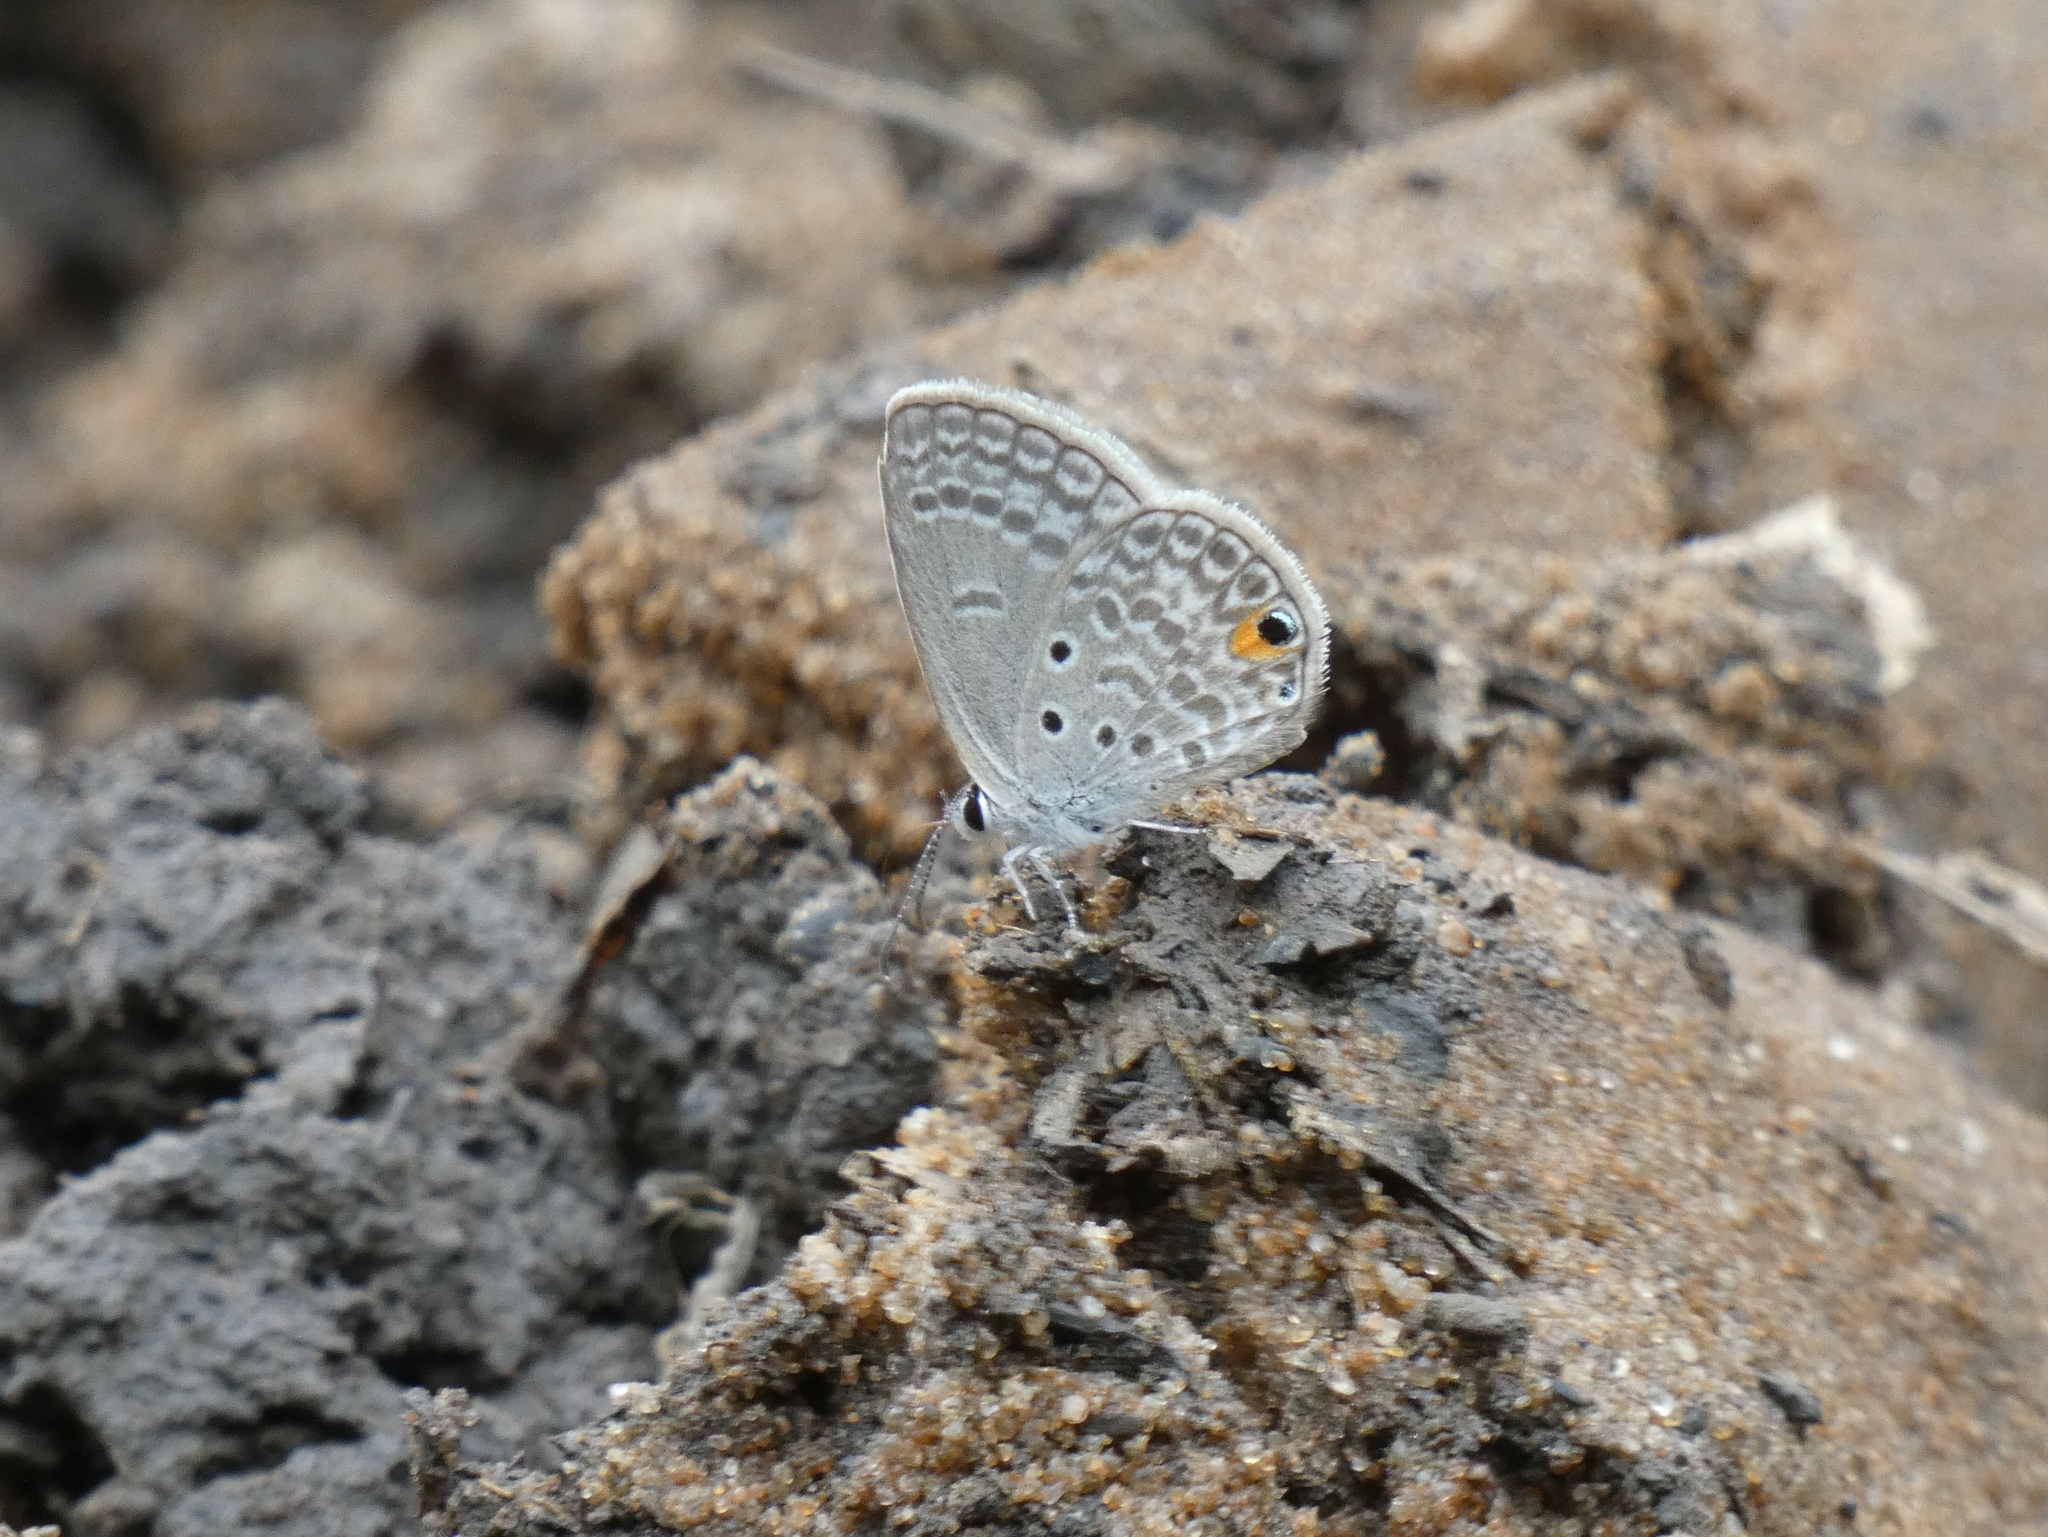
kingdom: Animalia
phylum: Arthropoda
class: Insecta
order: Lepidoptera
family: Lycaenidae
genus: Euchrysops
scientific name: Euchrysops malathana
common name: Common smoky blue
